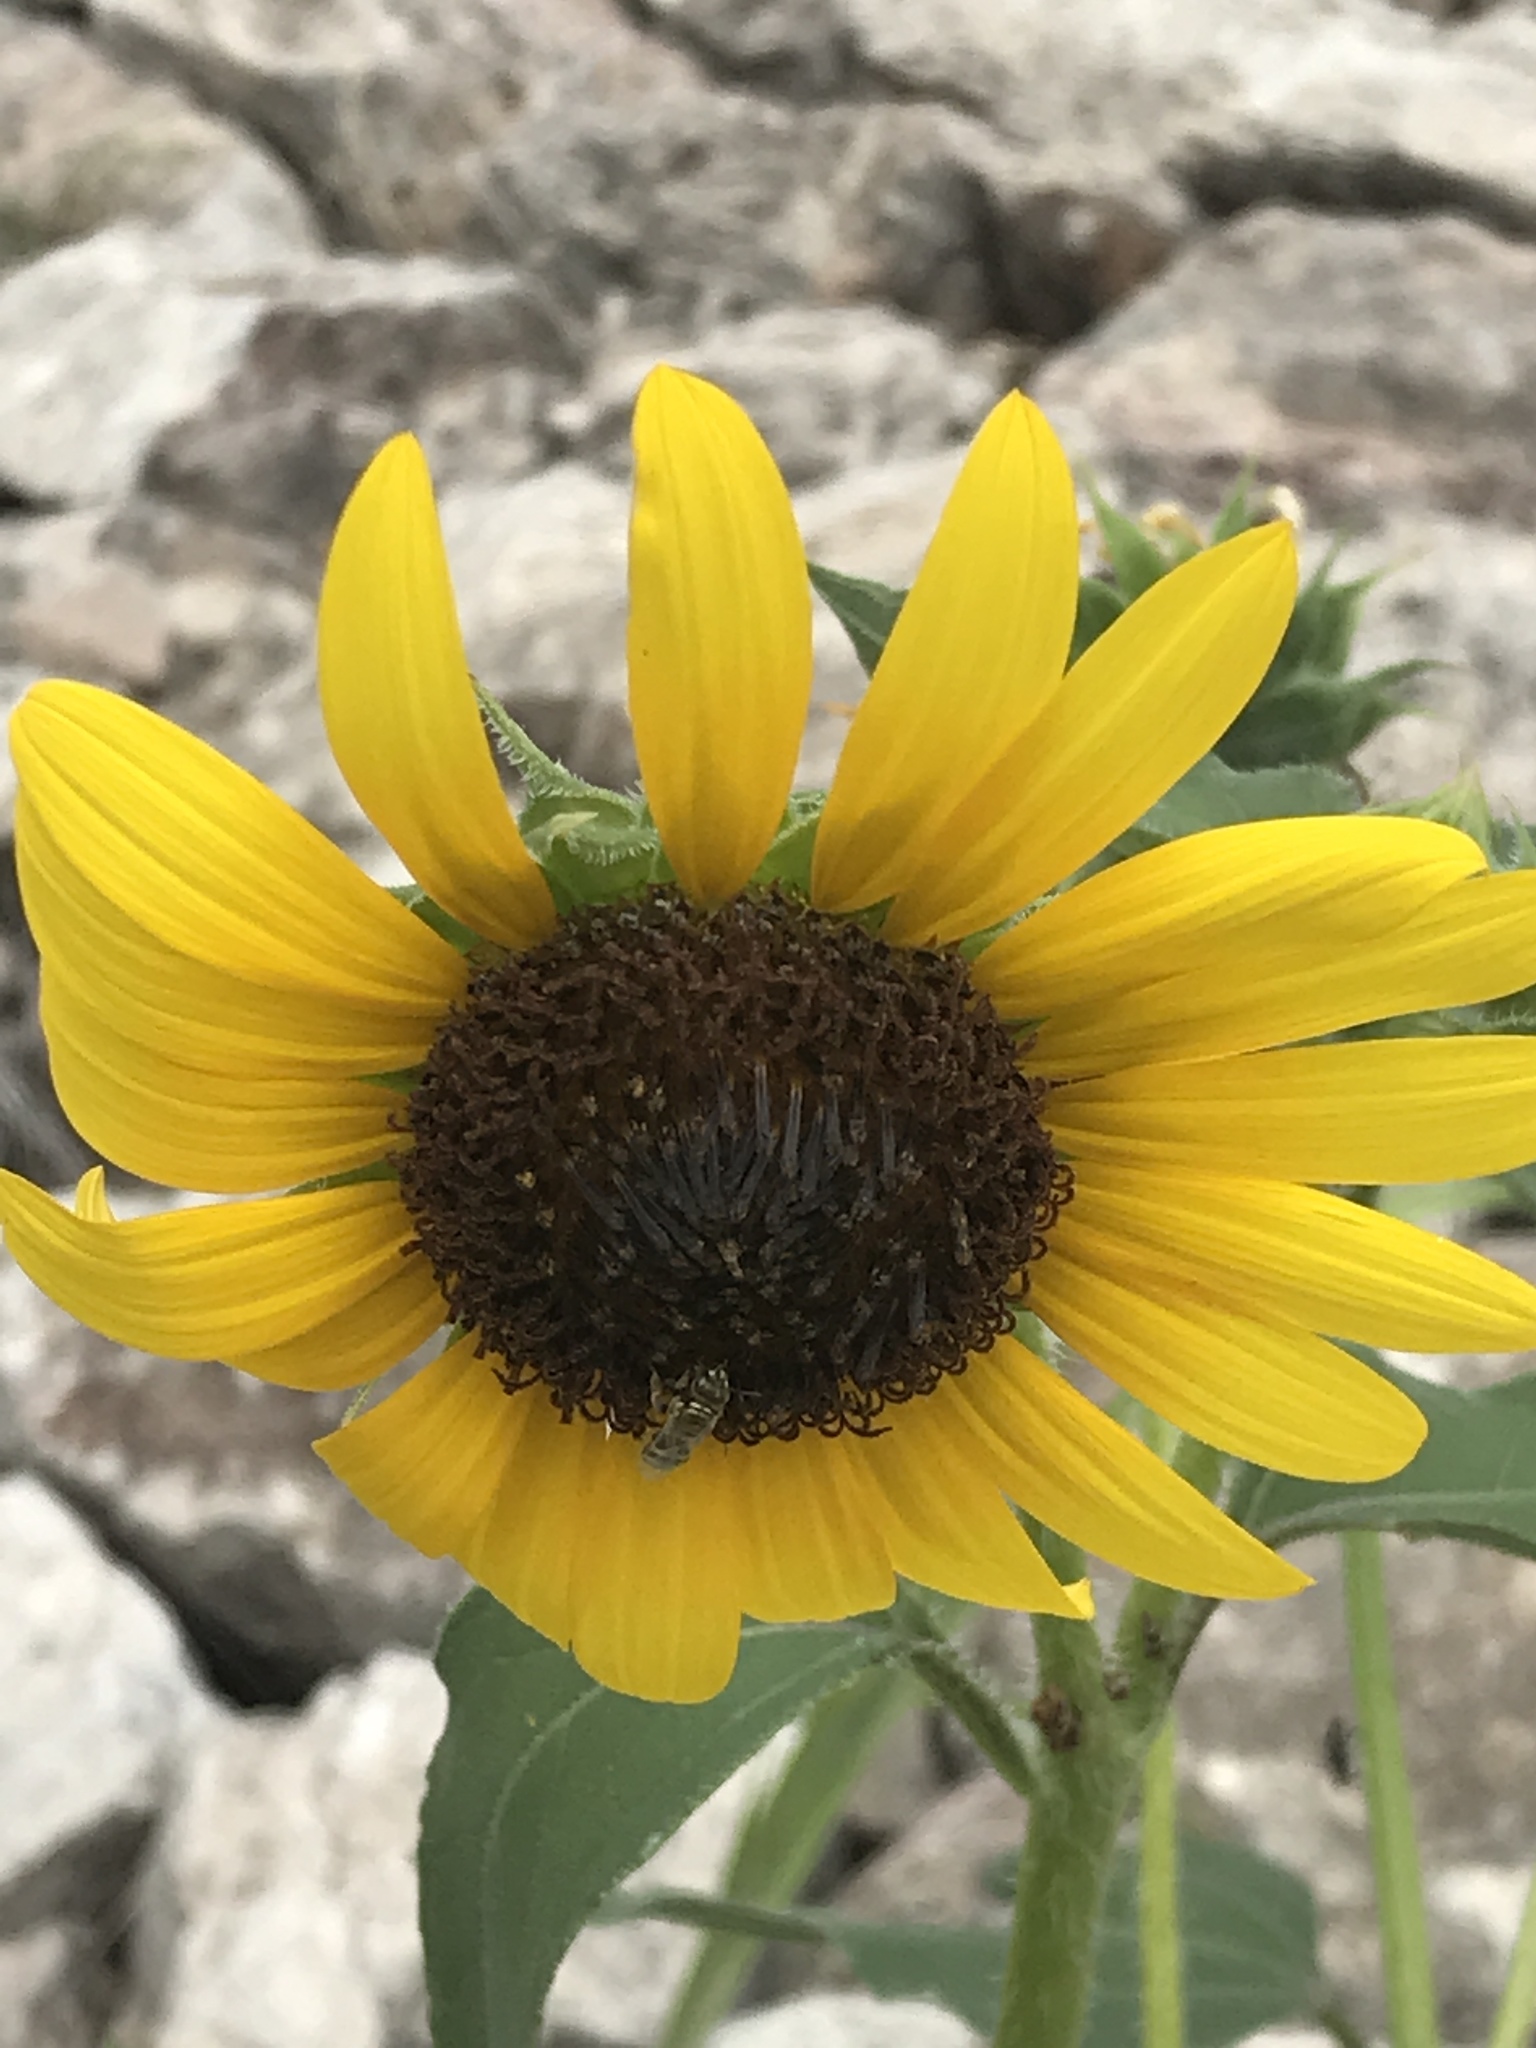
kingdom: Plantae
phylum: Tracheophyta
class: Magnoliopsida
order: Asterales
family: Asteraceae
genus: Helianthus
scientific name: Helianthus annuus
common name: Sunflower
